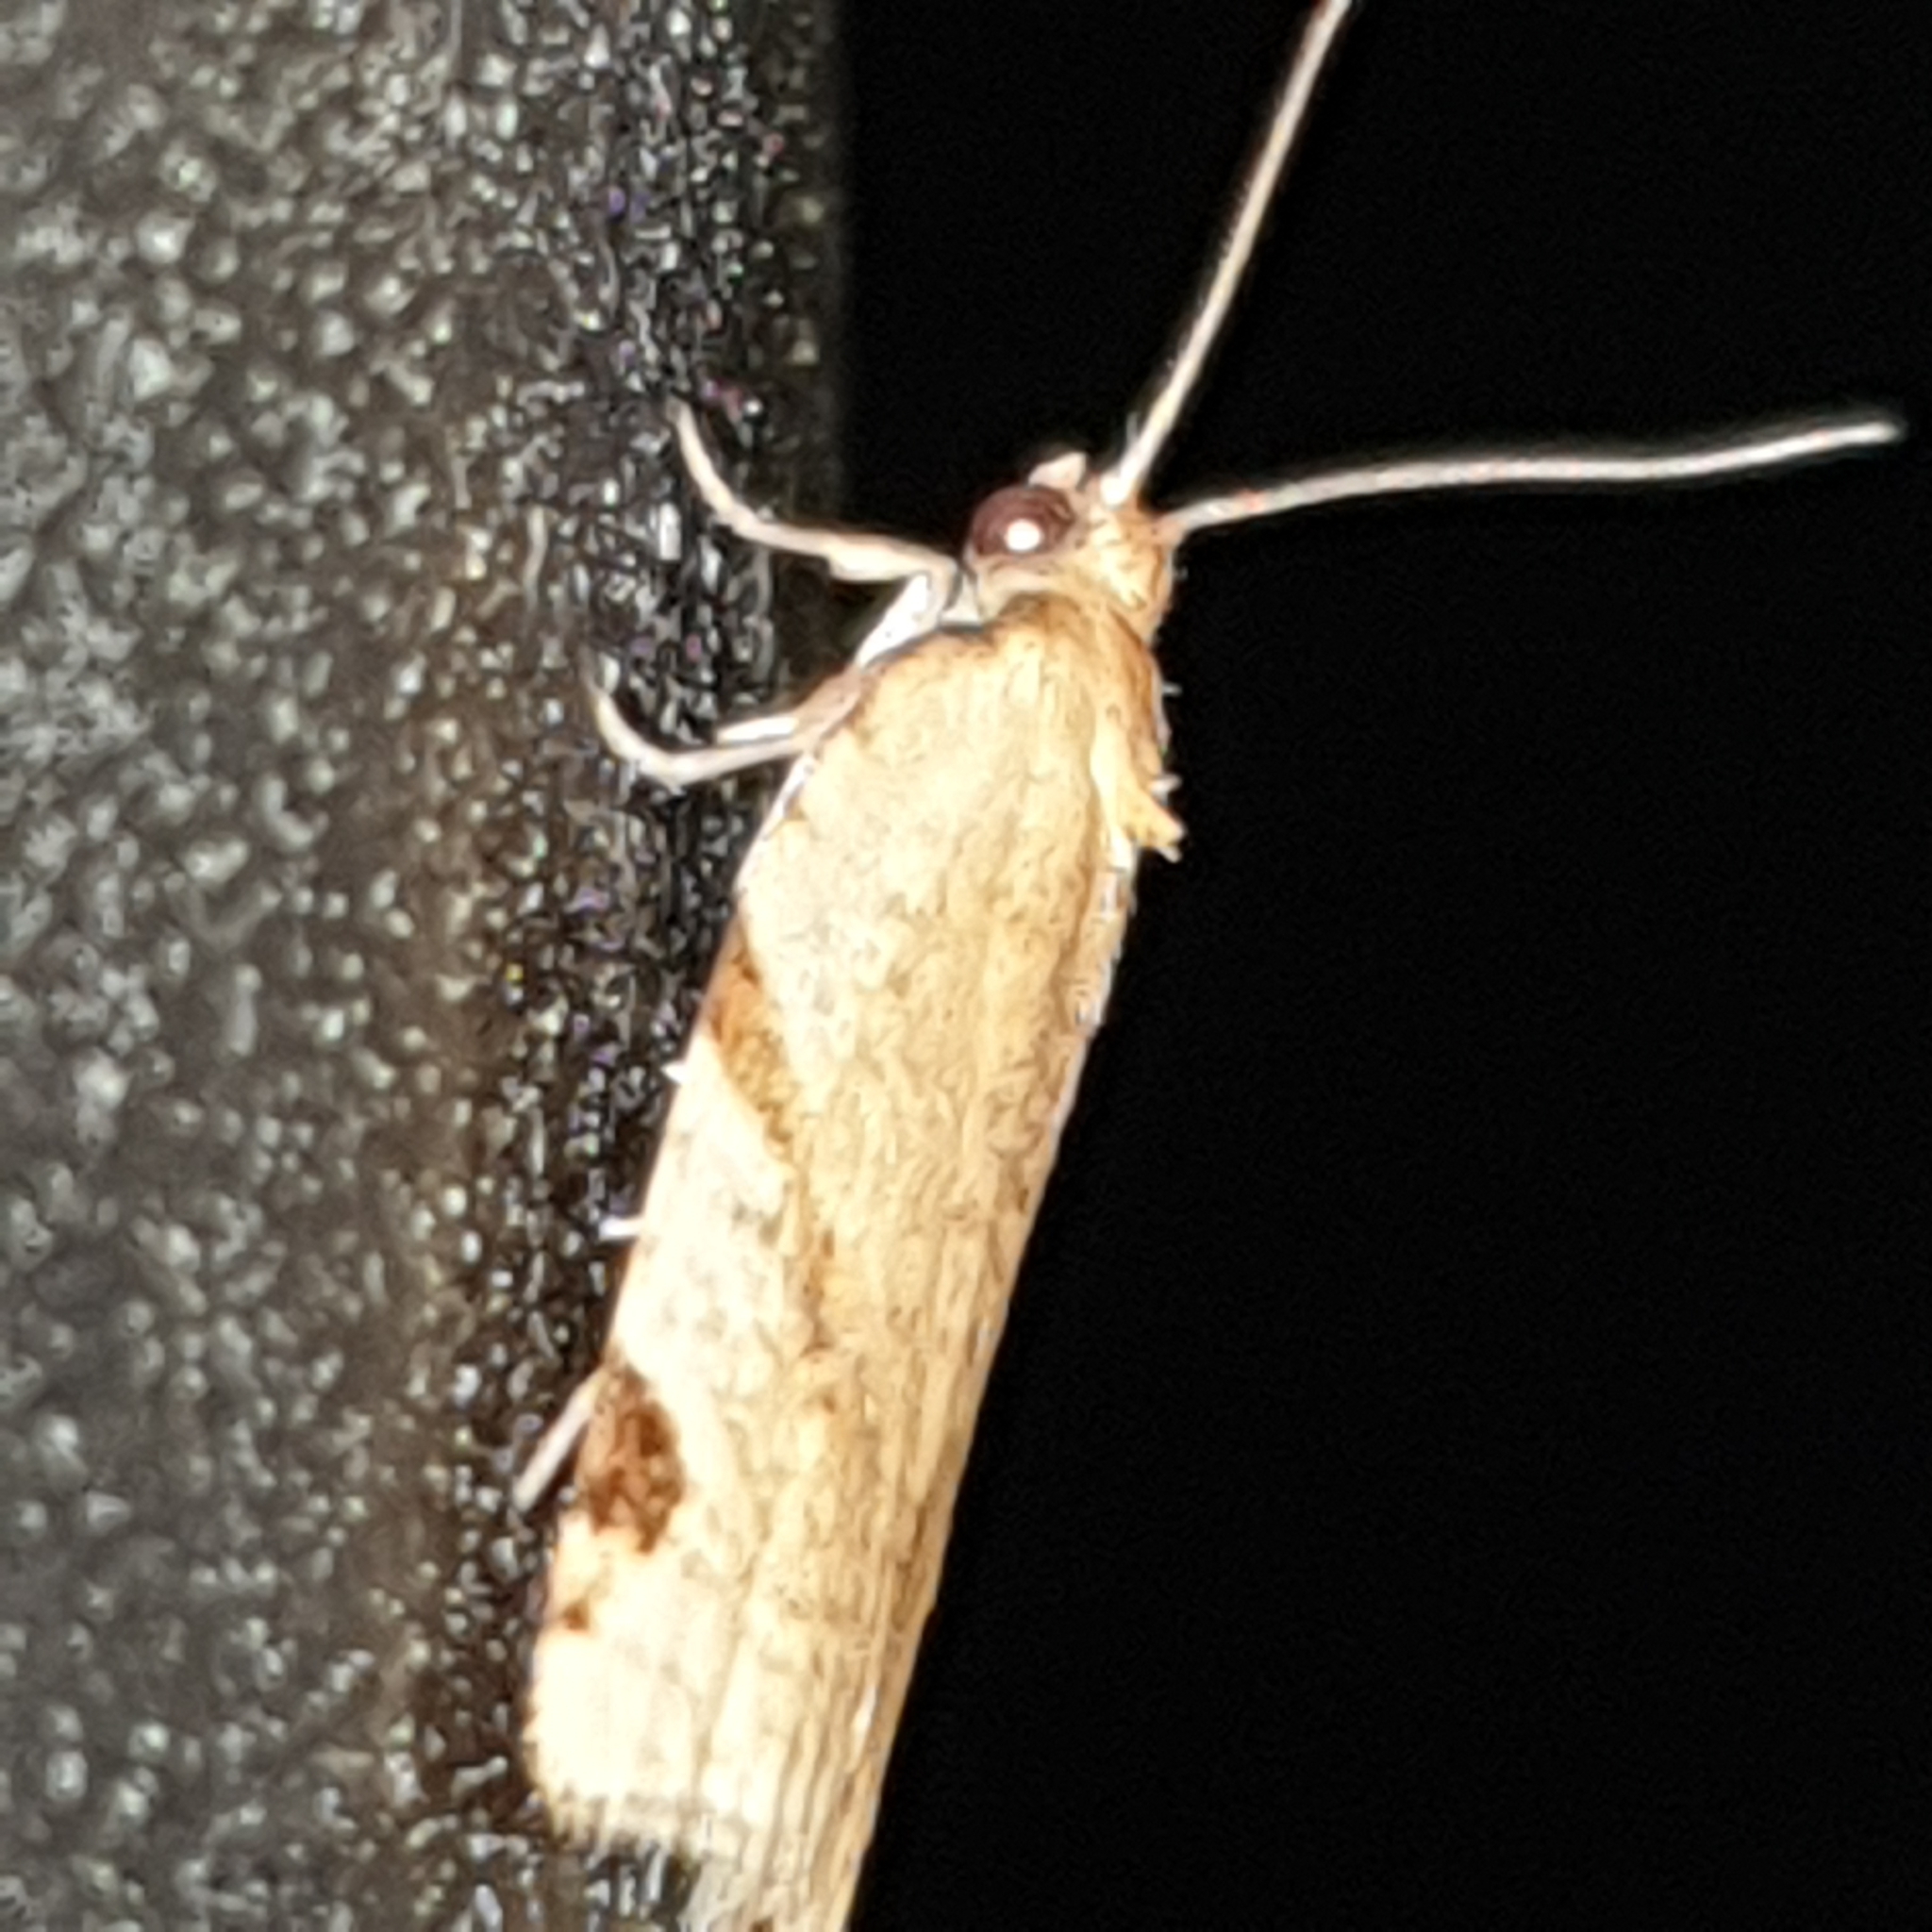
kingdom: Animalia
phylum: Arthropoda
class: Insecta
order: Lepidoptera
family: Tortricidae
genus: Paramesia
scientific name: Paramesia gnomana
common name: Small straw twist
